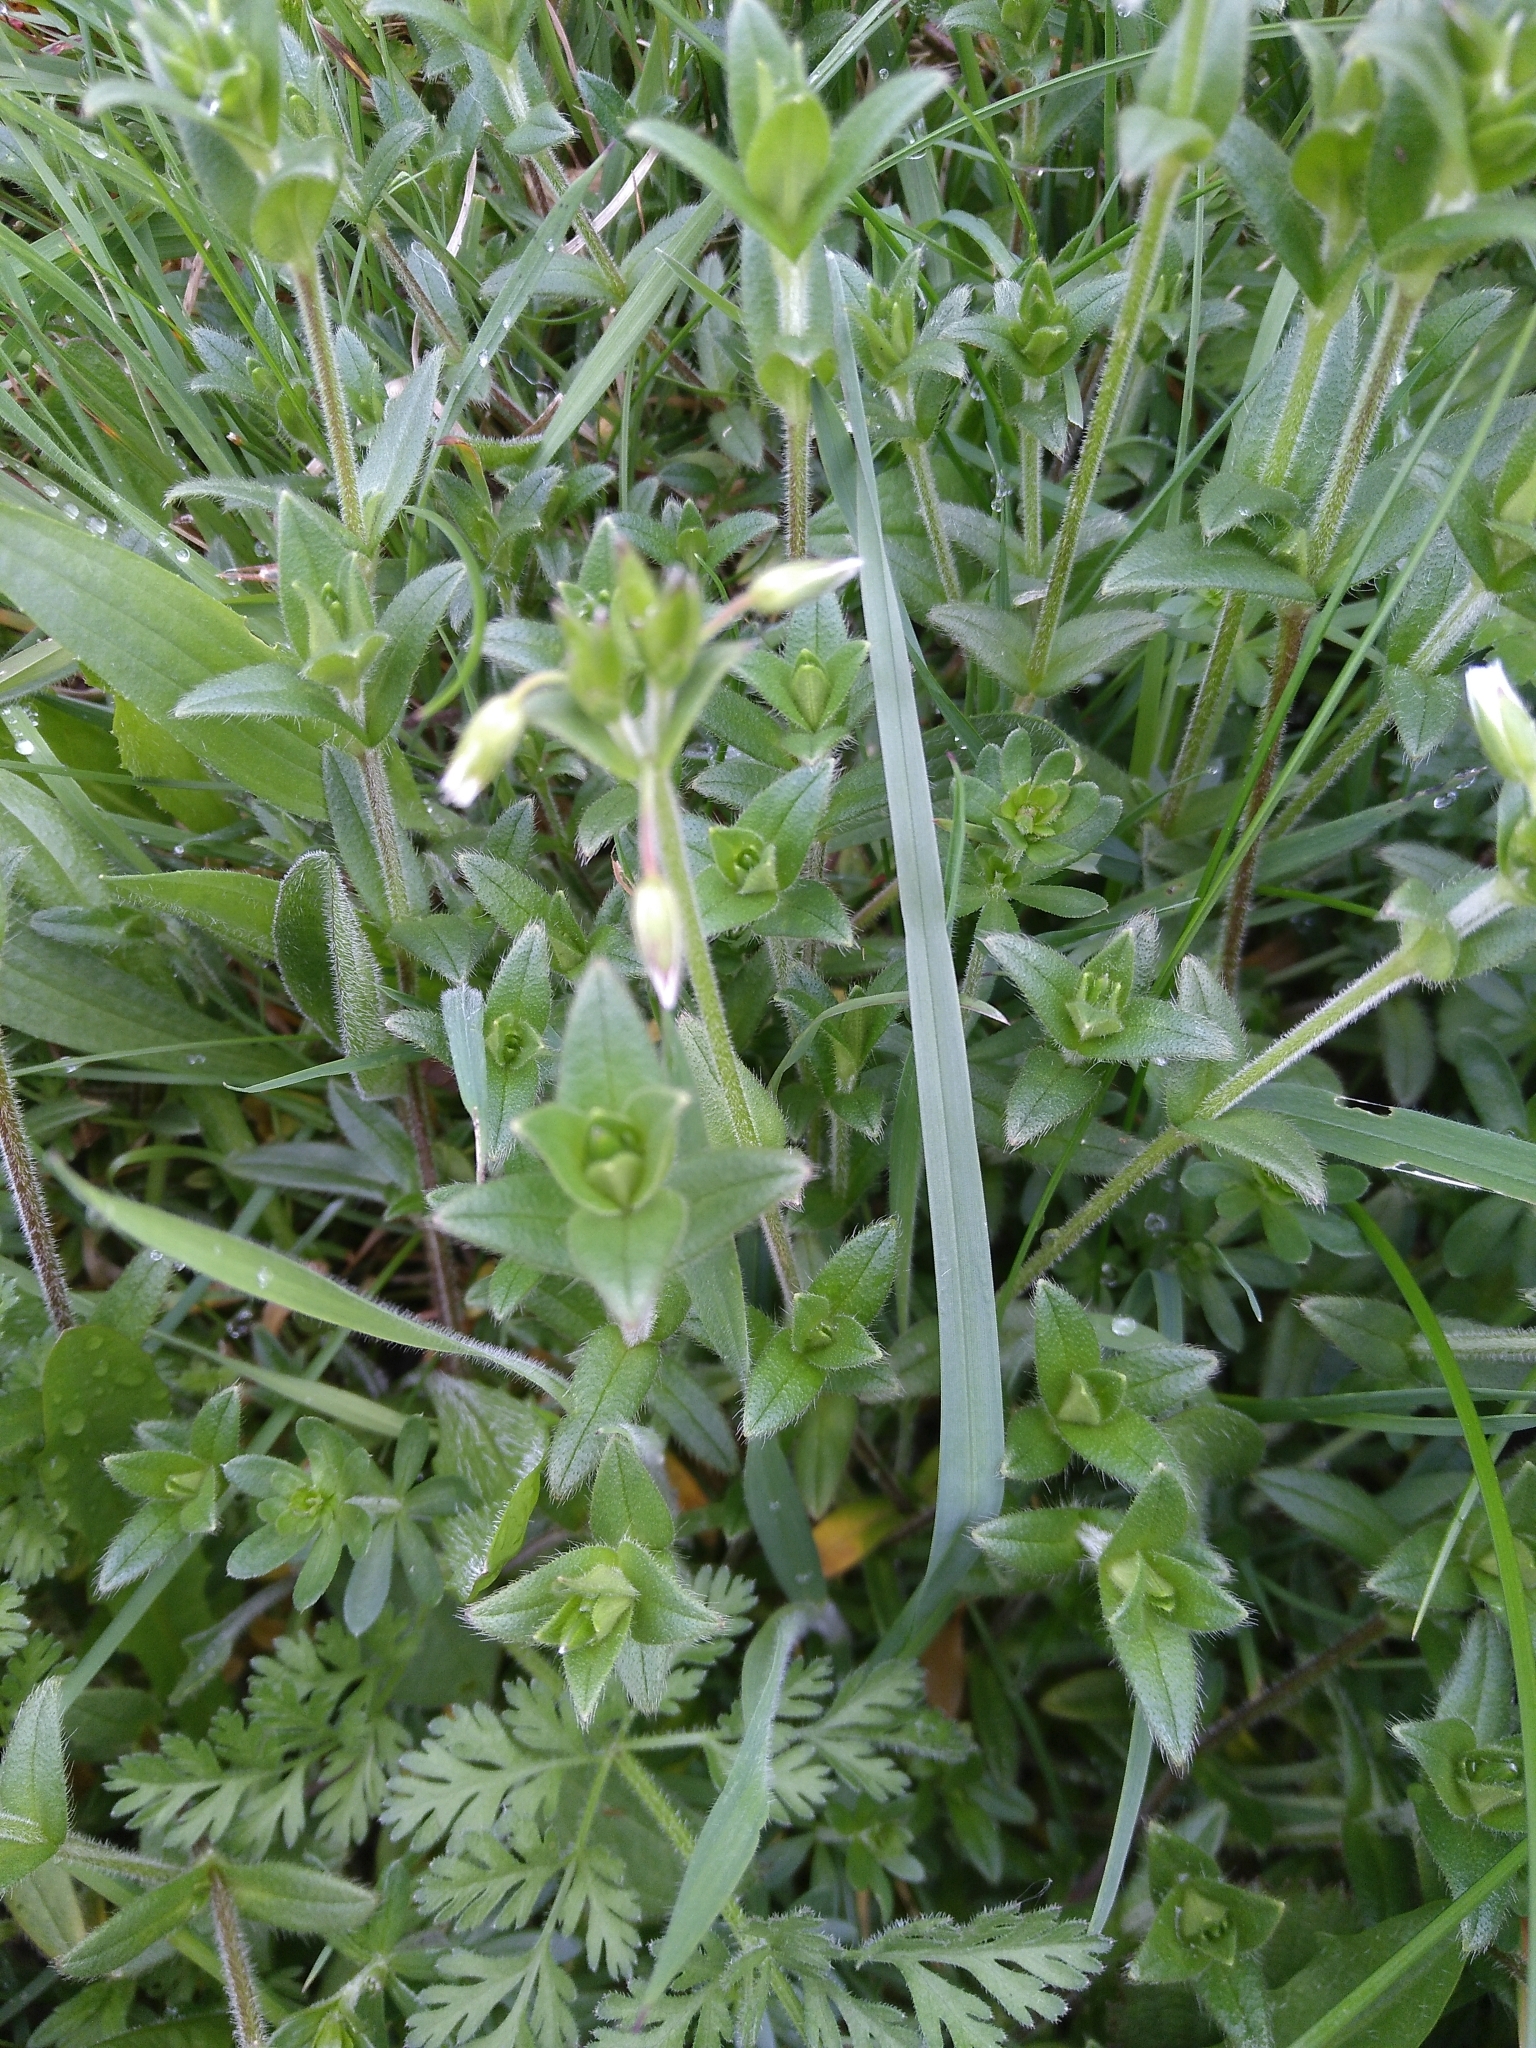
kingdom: Plantae
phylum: Tracheophyta
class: Magnoliopsida
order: Caryophyllales
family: Caryophyllaceae
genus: Cerastium
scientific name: Cerastium fontanum
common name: Common mouse-ear
